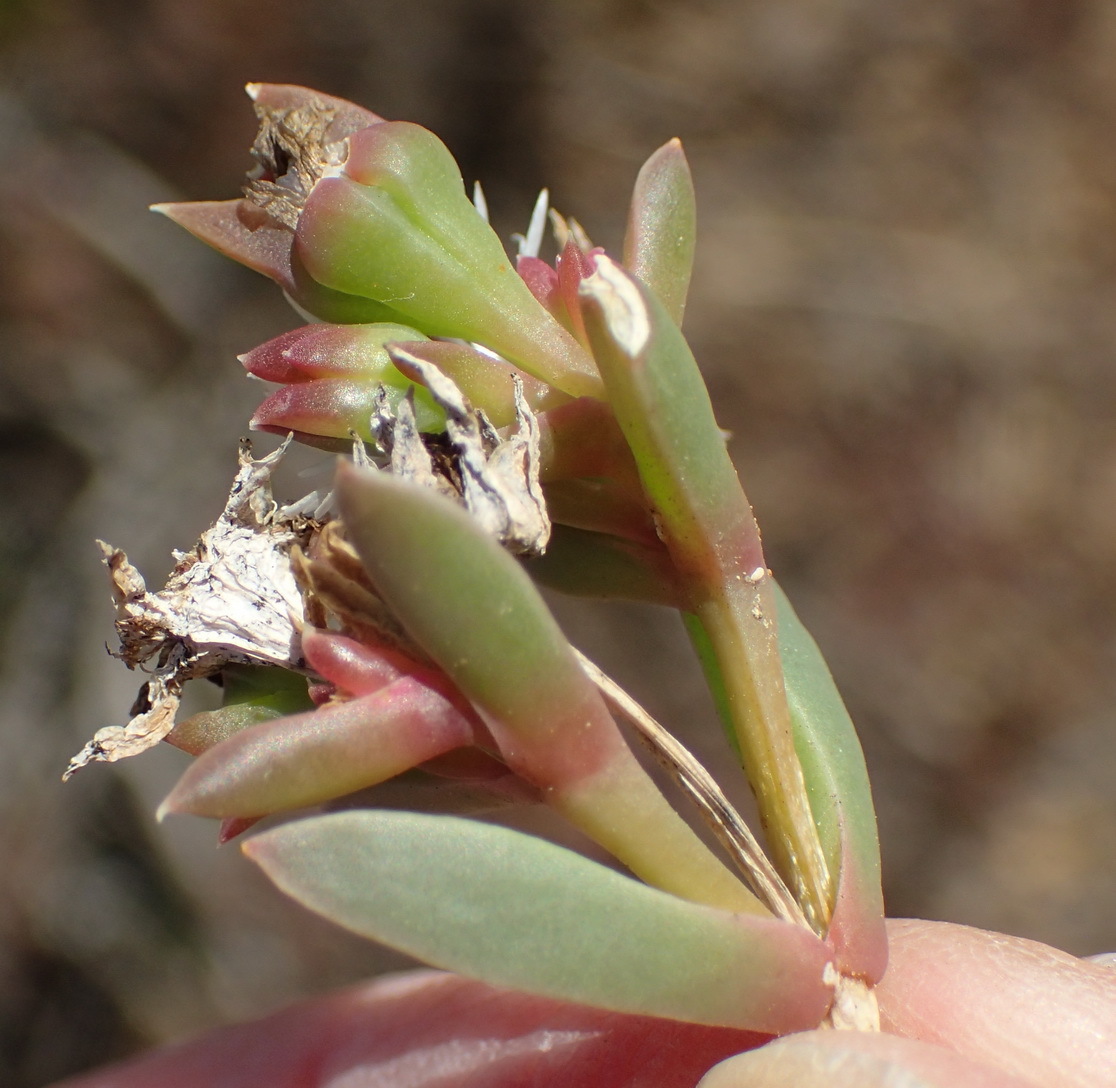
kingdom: Plantae
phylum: Tracheophyta
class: Magnoliopsida
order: Caryophyllales
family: Aizoaceae
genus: Delosperma
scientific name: Delosperma litorale
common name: Seaside delosperma
